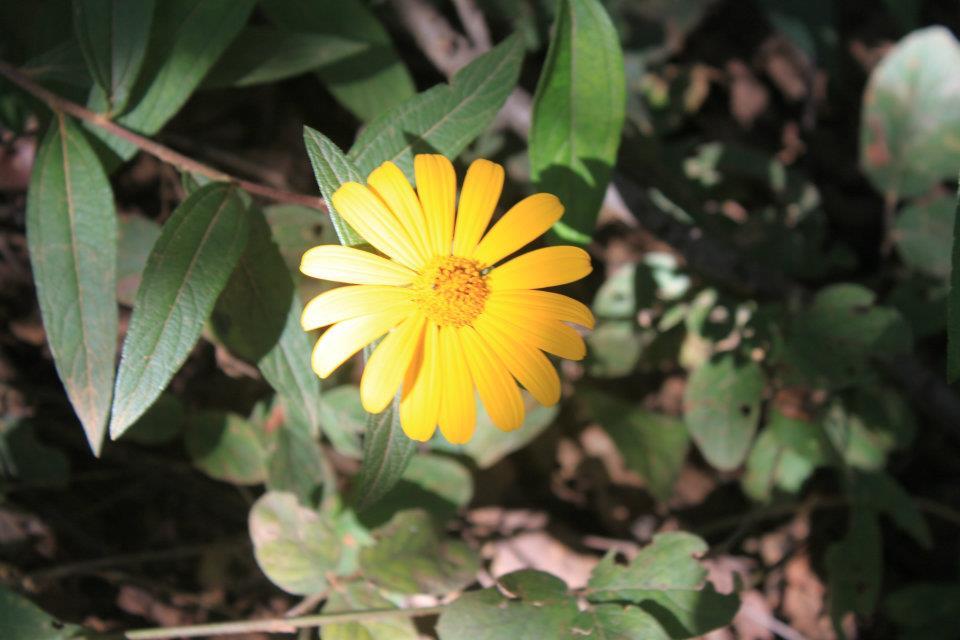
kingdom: Plantae
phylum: Tracheophyta
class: Magnoliopsida
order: Asterales
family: Asteraceae
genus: Aldama
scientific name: Aldama ghiesbreghtii
